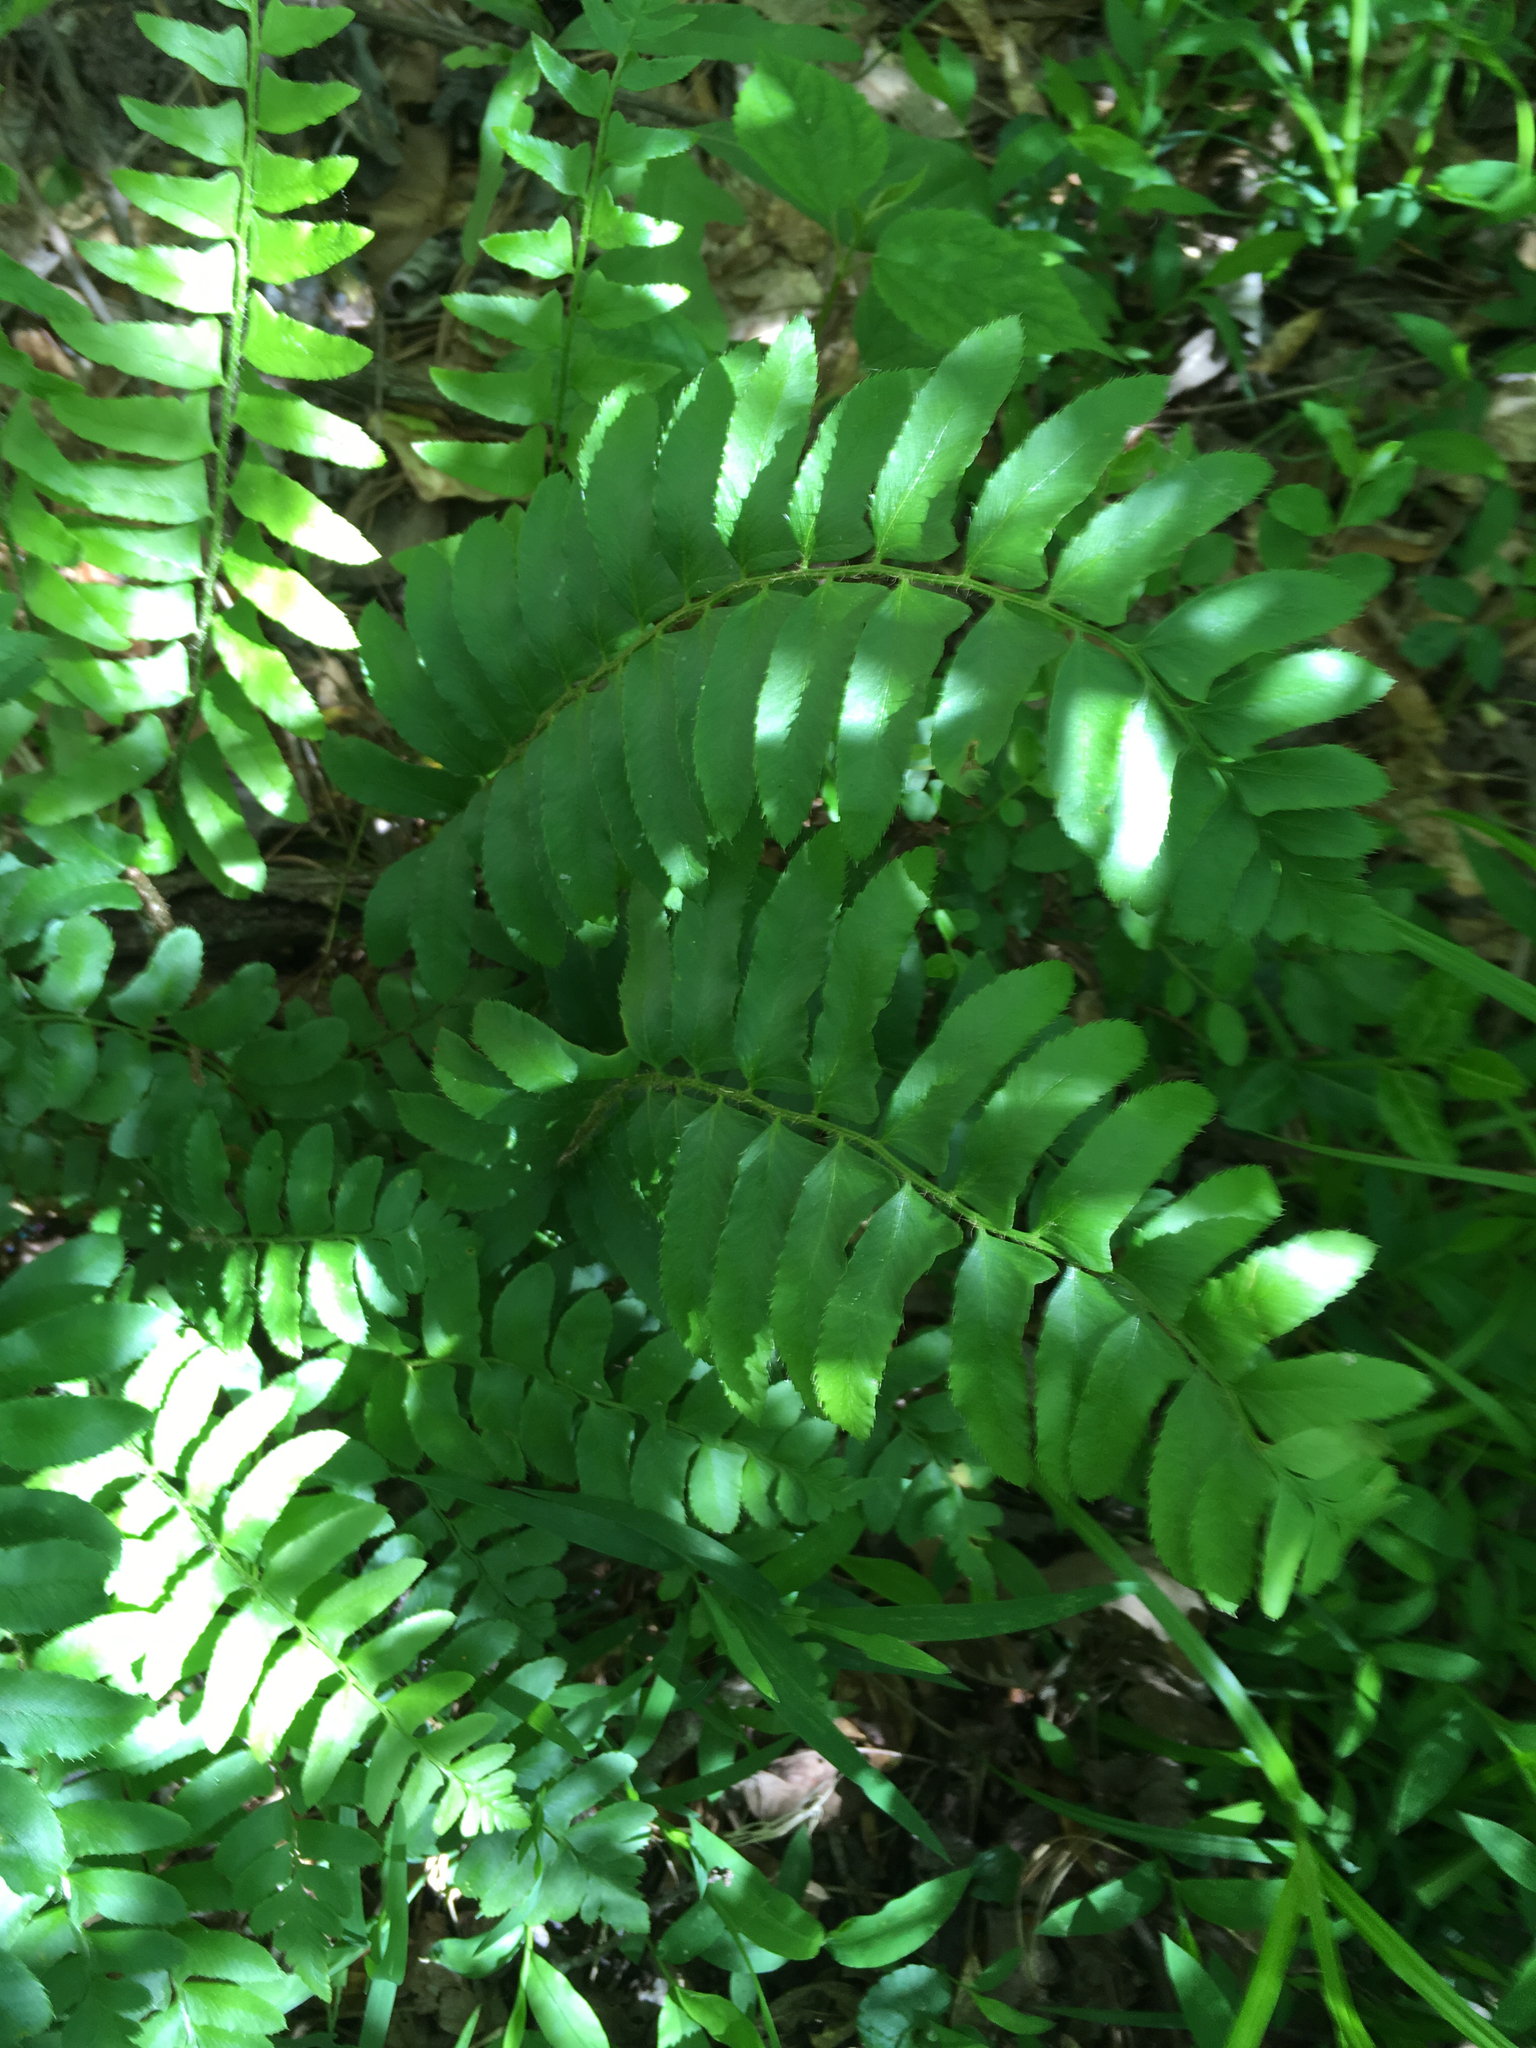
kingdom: Plantae
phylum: Tracheophyta
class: Polypodiopsida
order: Polypodiales
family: Dryopteridaceae
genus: Polystichum
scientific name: Polystichum acrostichoides
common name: Christmas fern
